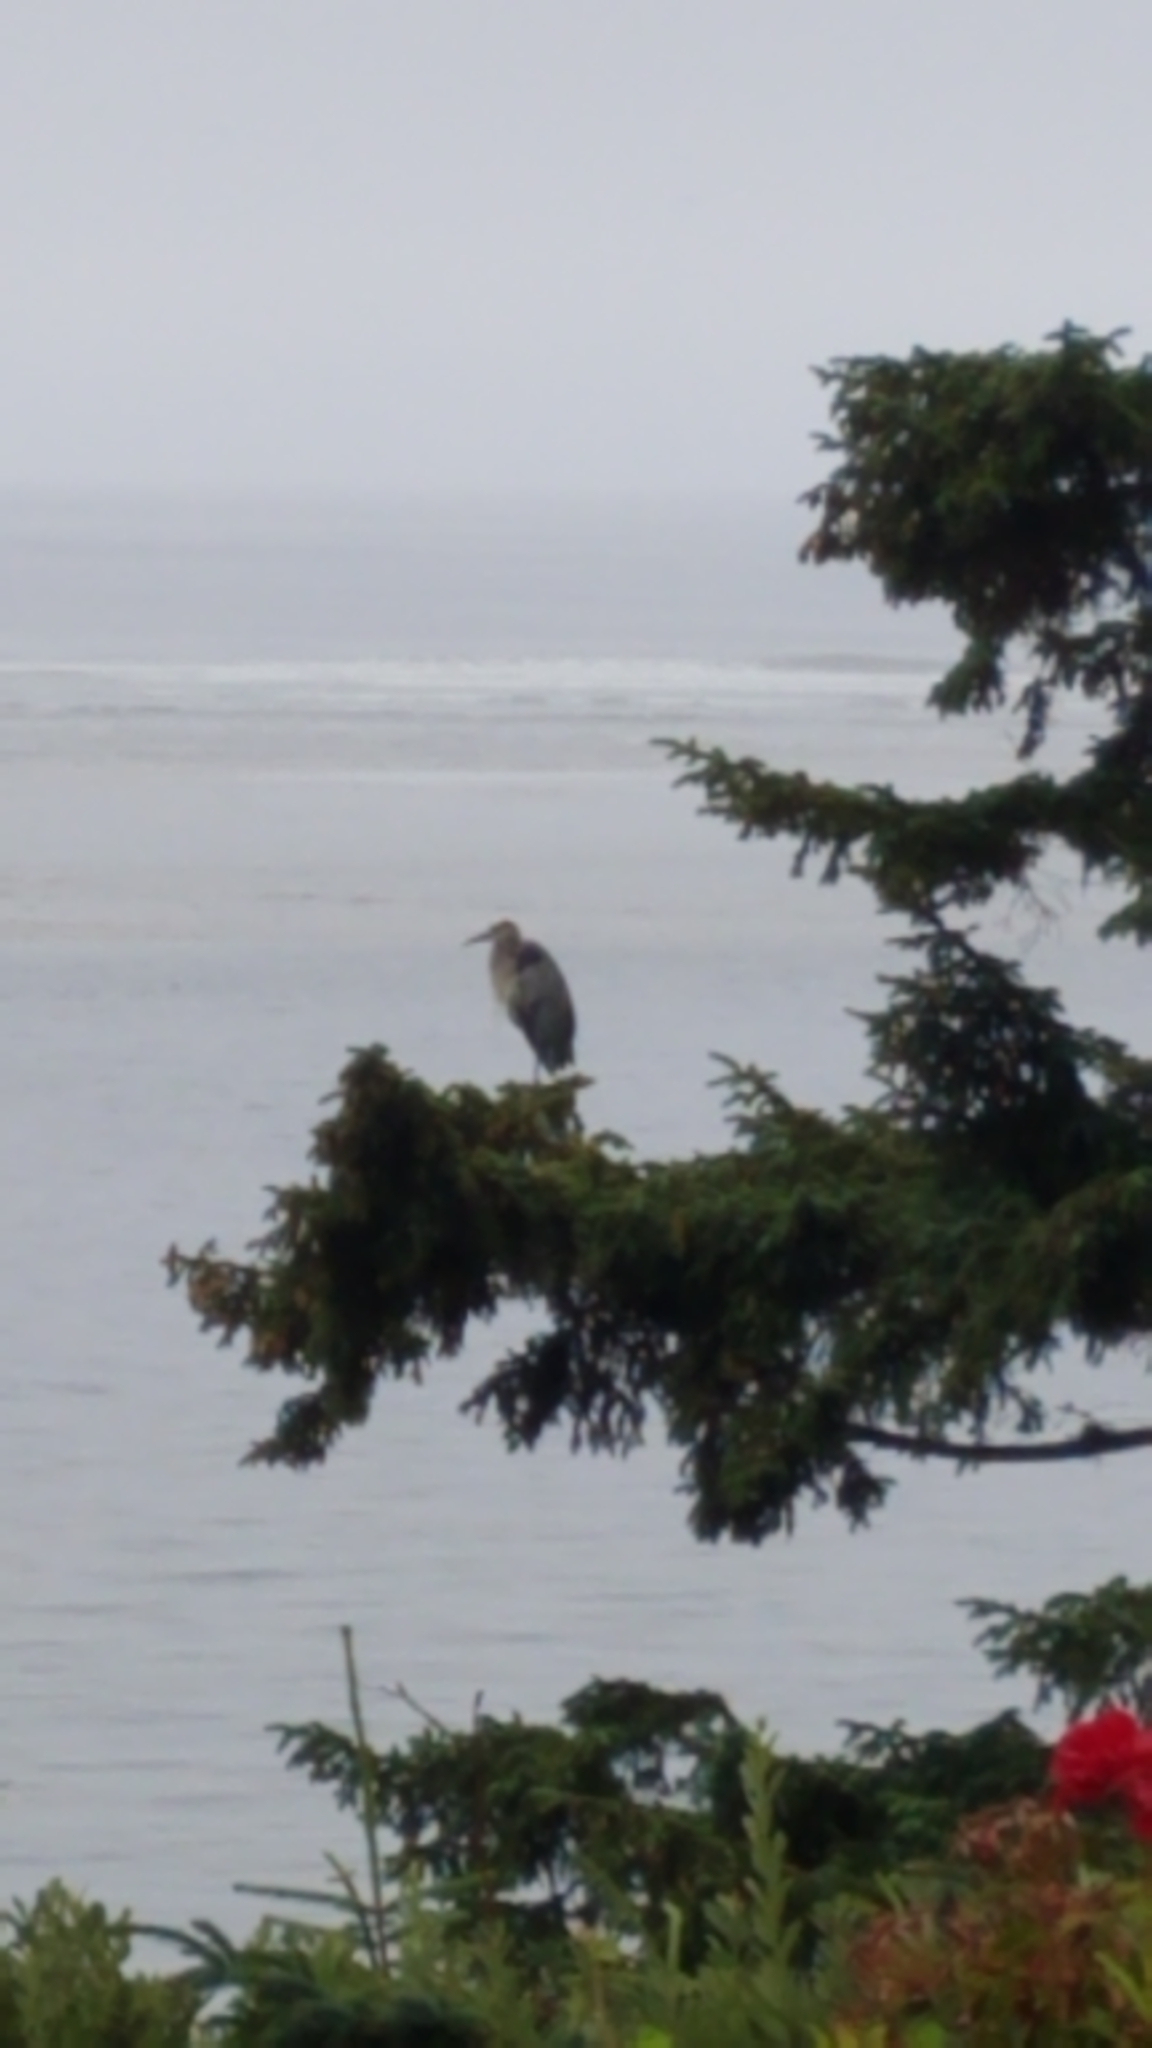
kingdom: Animalia
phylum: Chordata
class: Aves
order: Pelecaniformes
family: Ardeidae
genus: Ardea
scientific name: Ardea herodias
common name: Great blue heron
